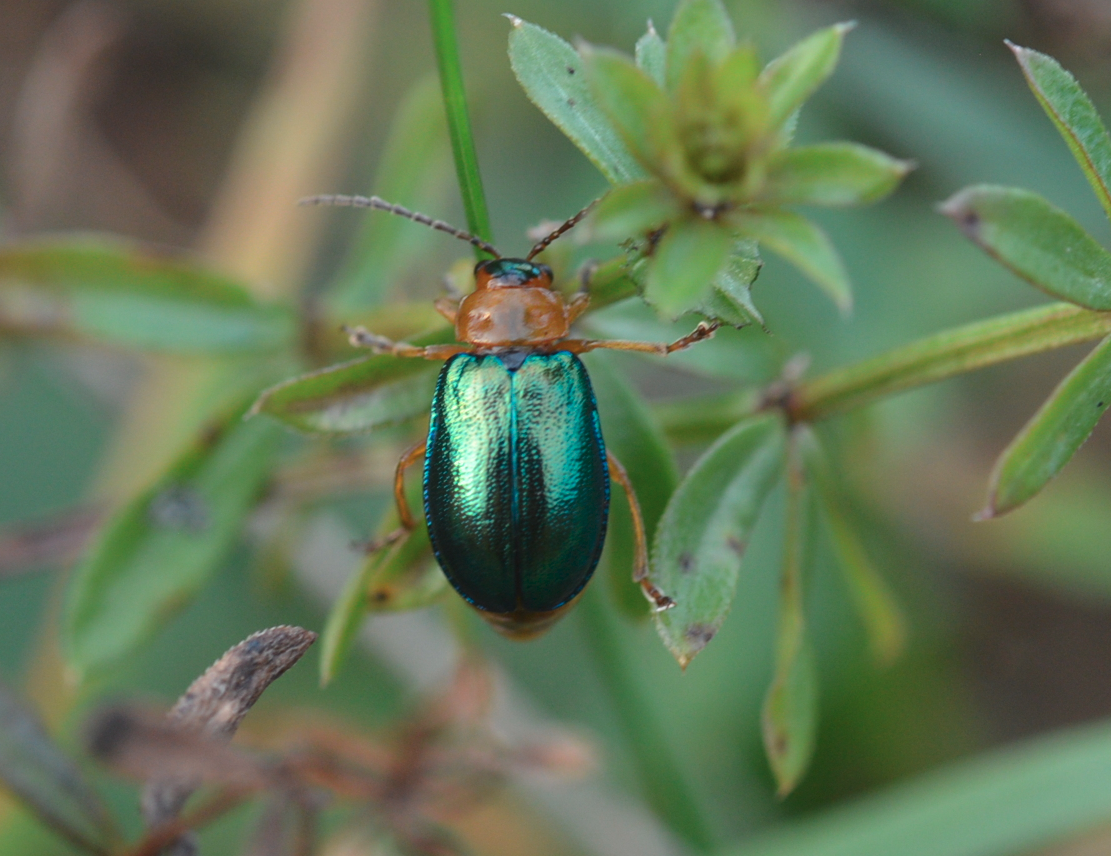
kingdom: Animalia
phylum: Arthropoda
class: Insecta
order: Coleoptera
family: Chrysomelidae
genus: Sermylassa
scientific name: Sermylassa halensis
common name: Leaf beetle
